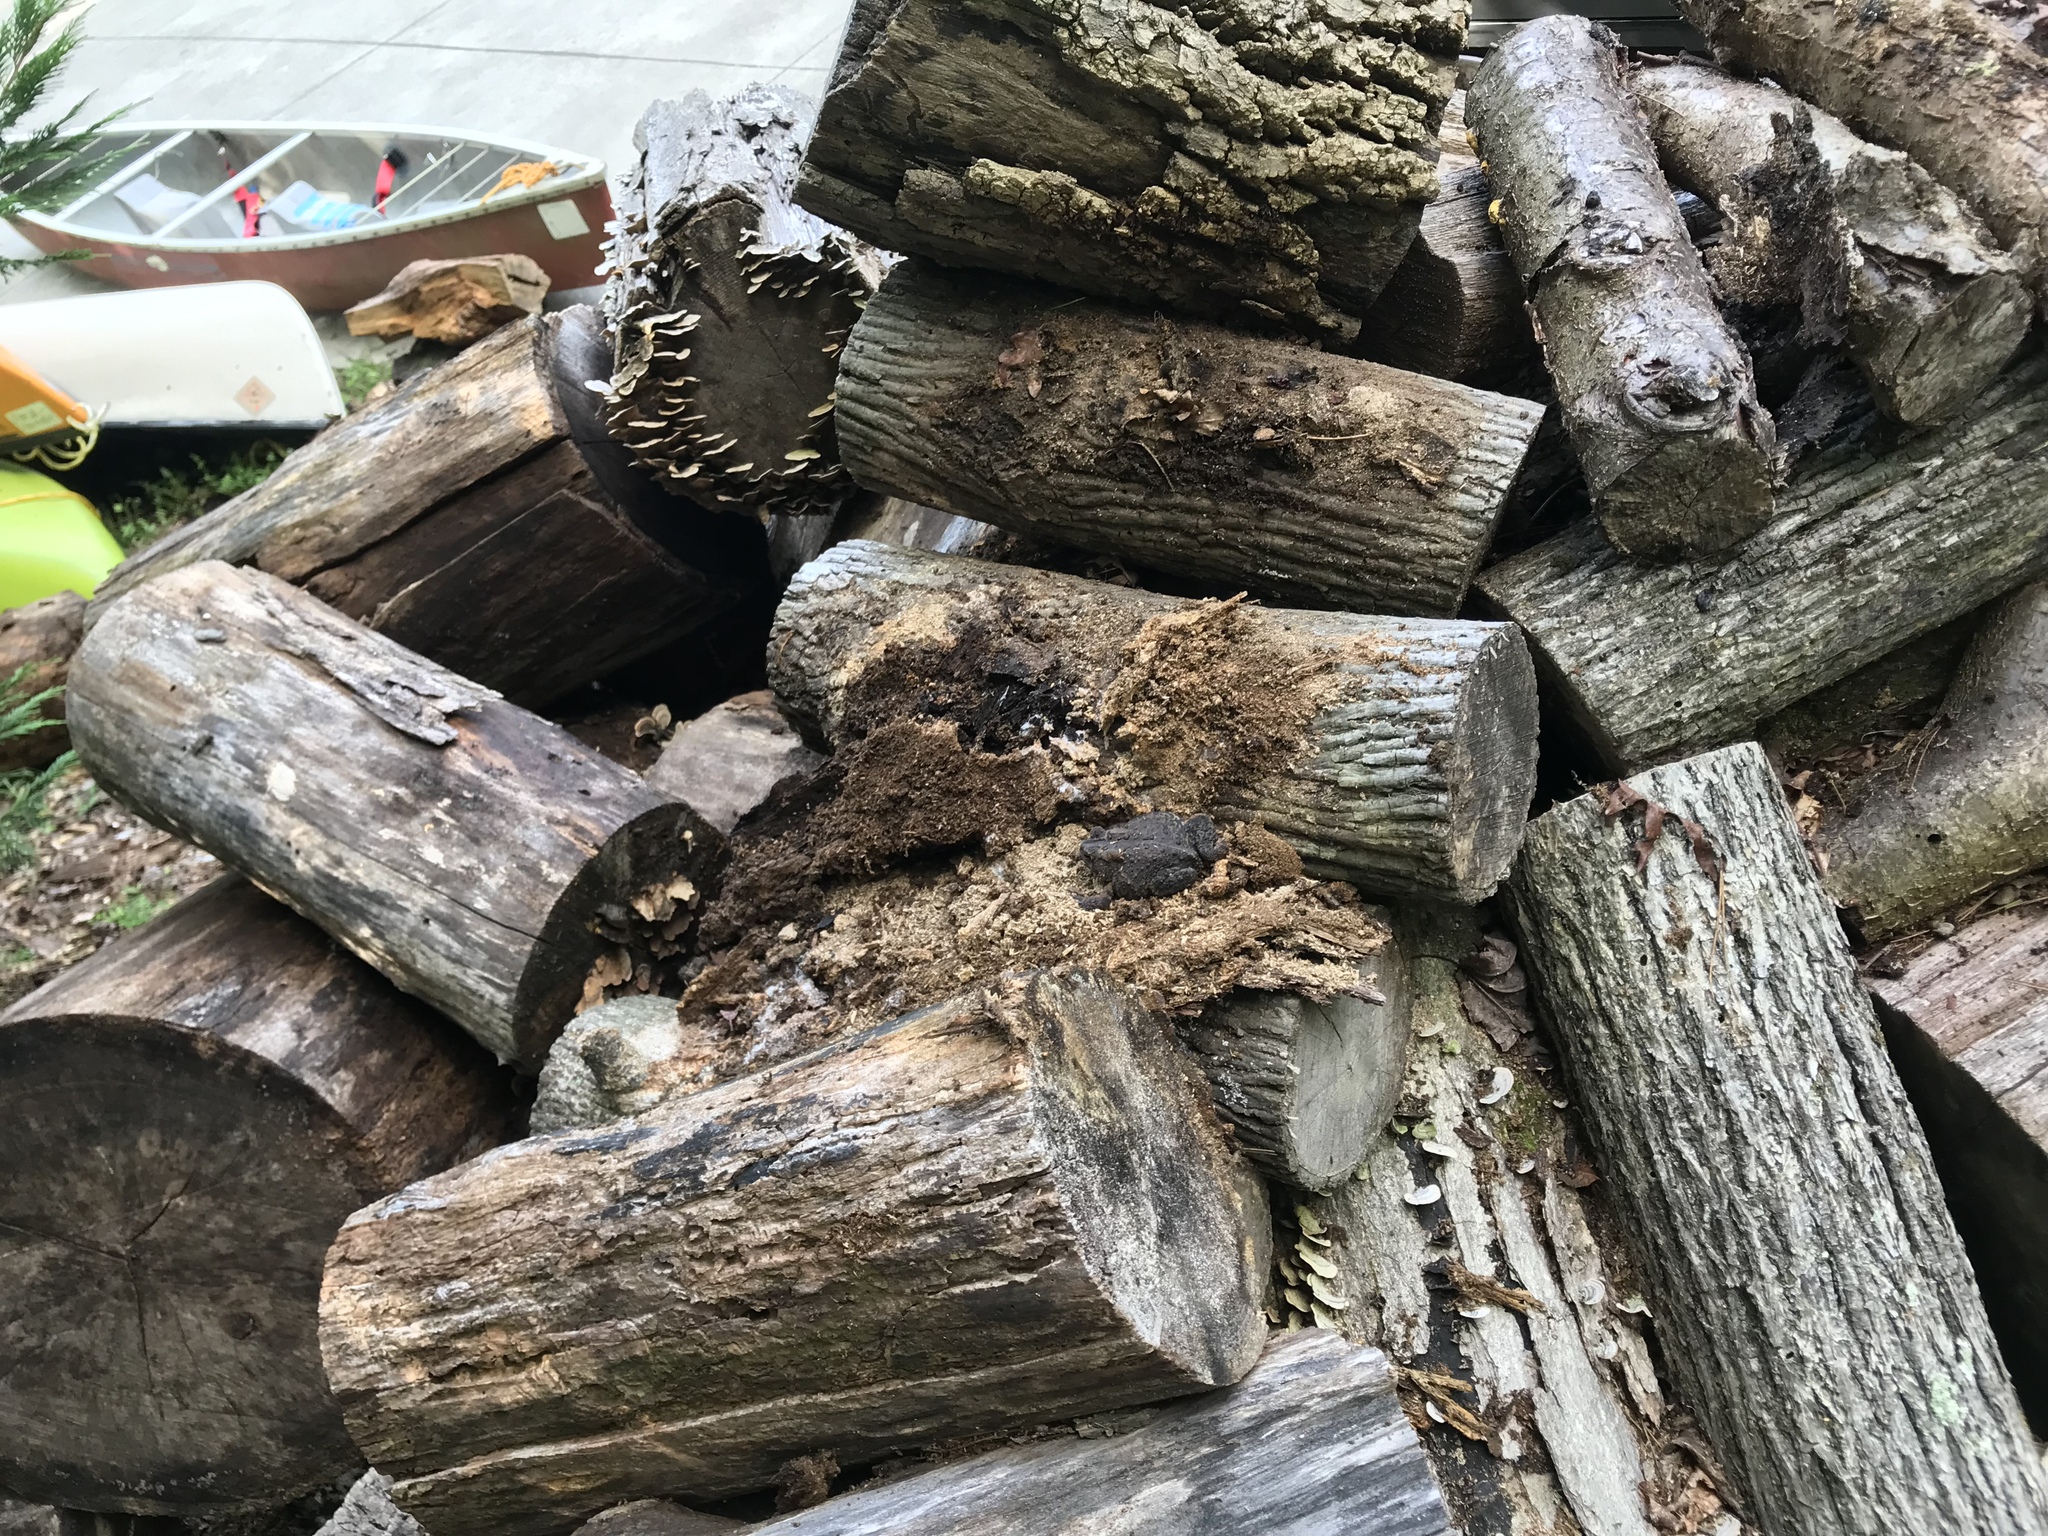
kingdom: Animalia
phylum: Chordata
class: Amphibia
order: Anura
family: Bufonidae
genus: Anaxyrus
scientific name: Anaxyrus americanus
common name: American toad
